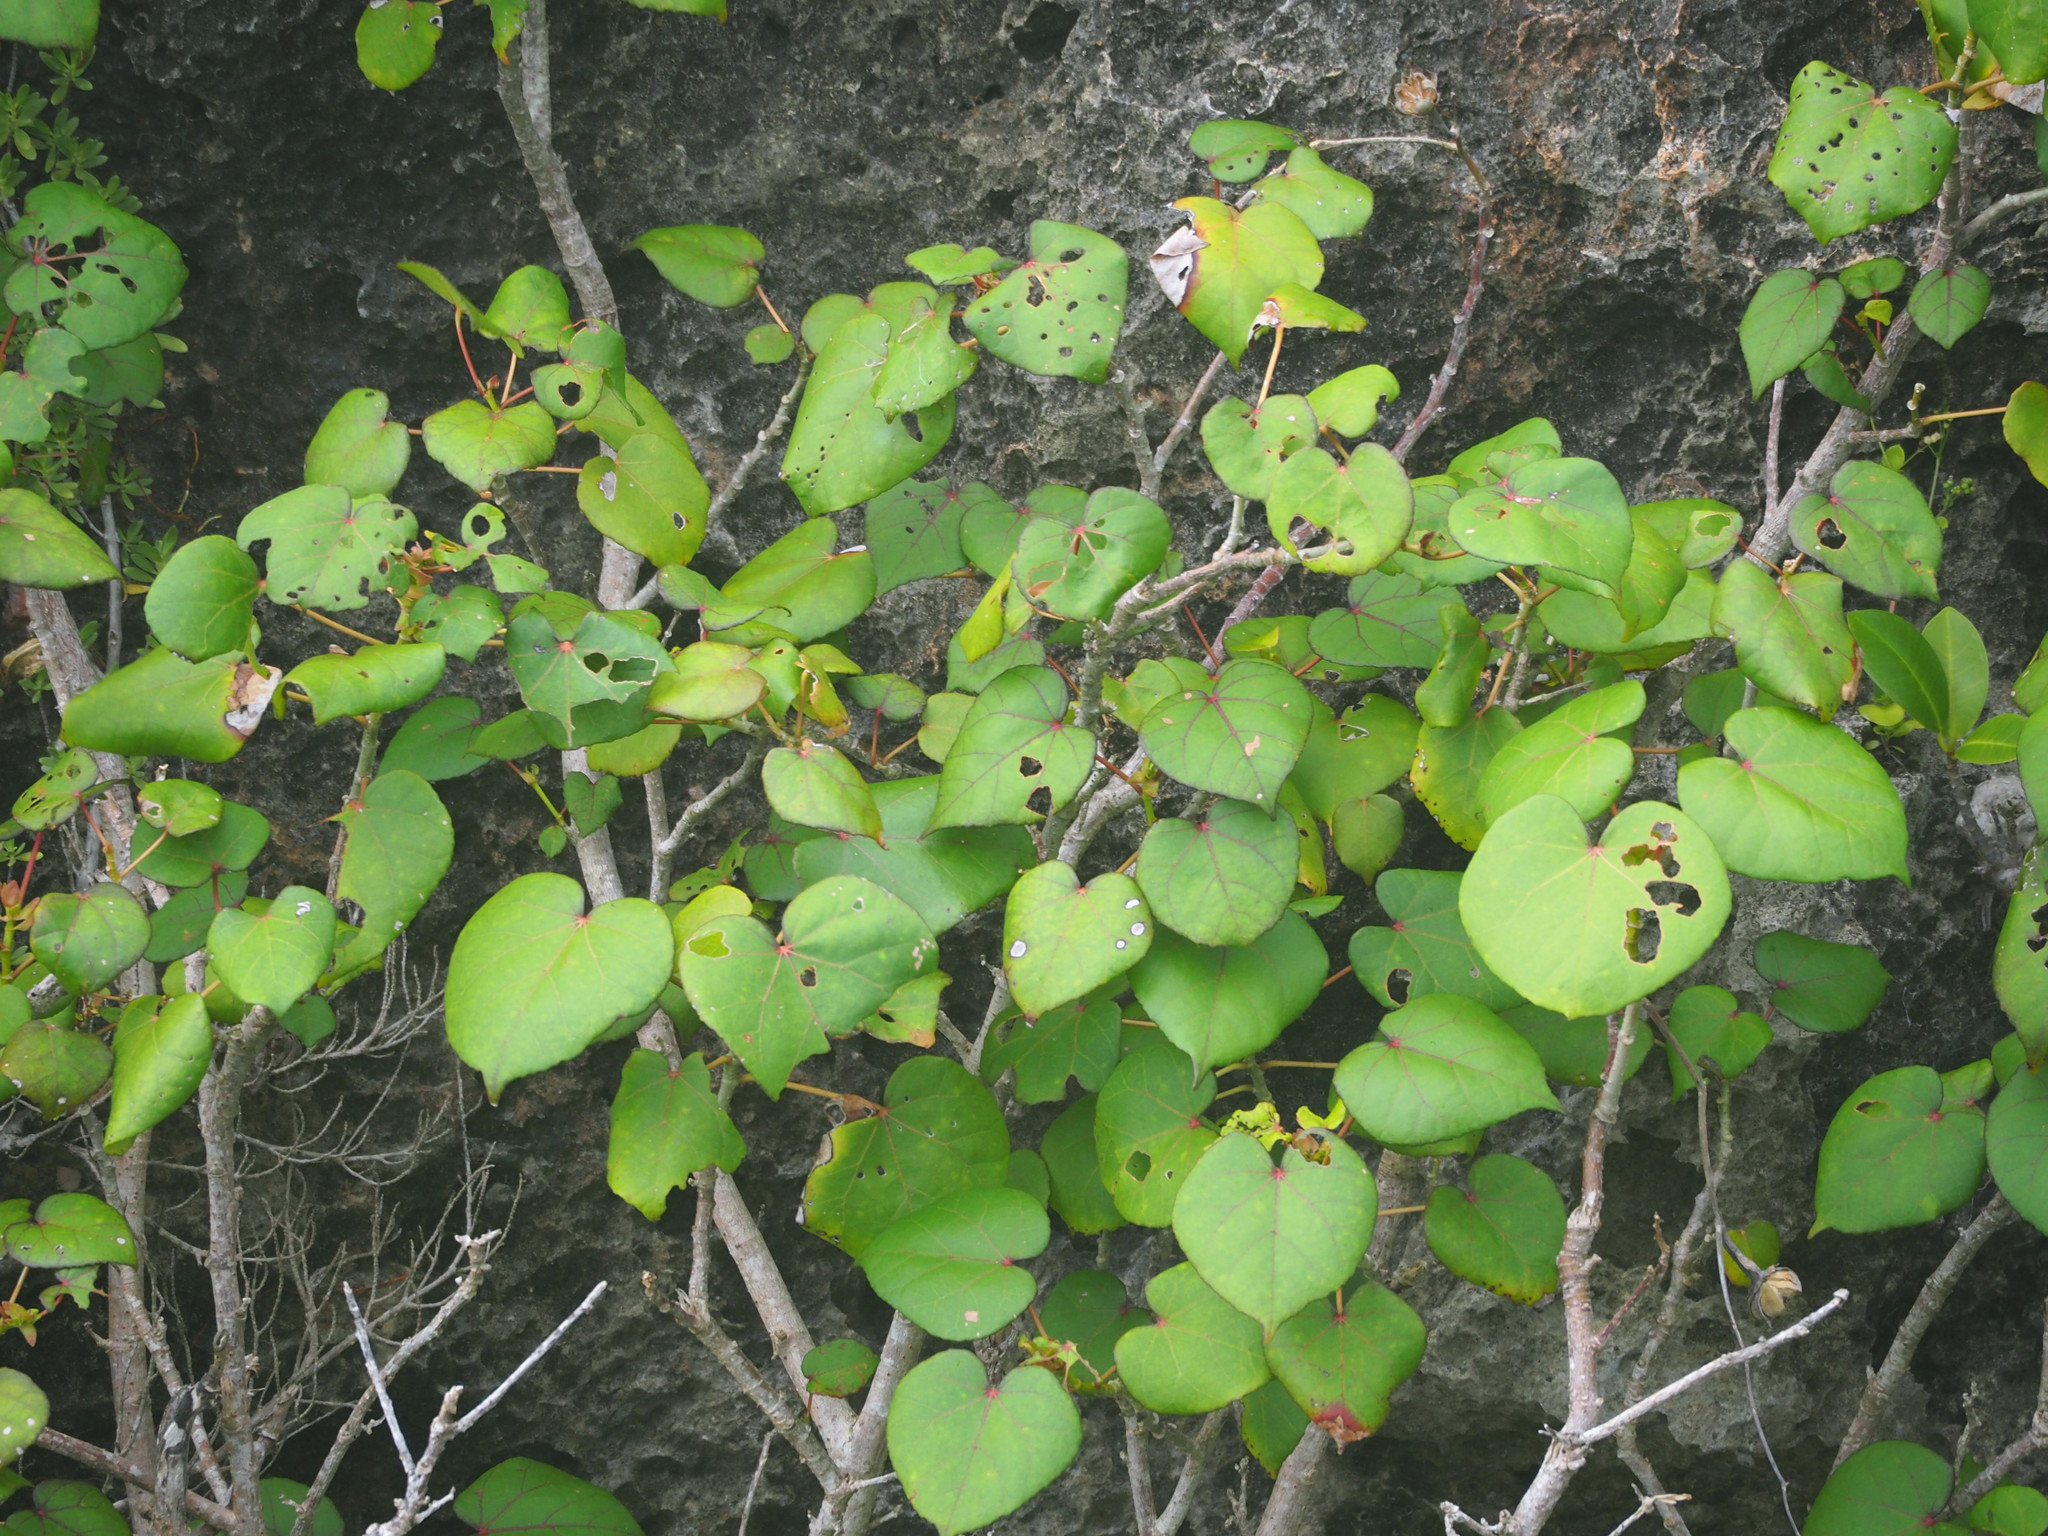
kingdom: Plantae
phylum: Tracheophyta
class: Magnoliopsida
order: Malvales
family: Malvaceae
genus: Talipariti
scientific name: Talipariti tiliaceum
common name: Sea hibiscus
